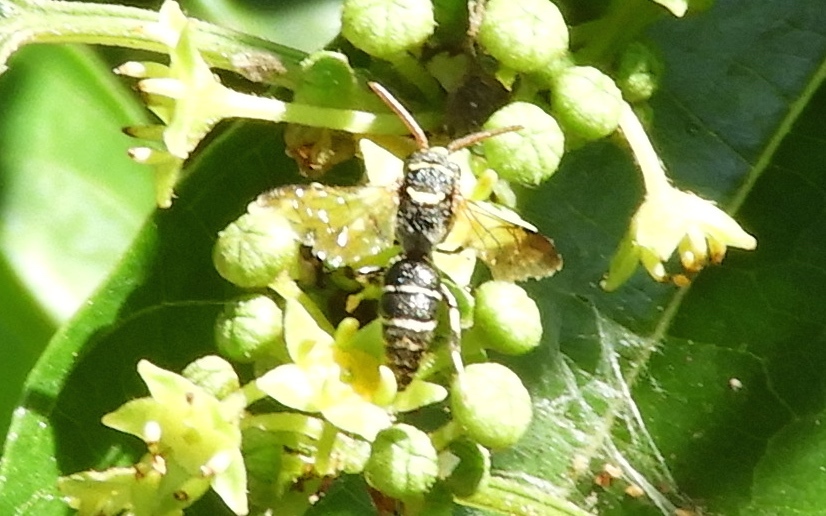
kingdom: Animalia
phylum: Arthropoda
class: Insecta
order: Hymenoptera
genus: Hylaeopsis
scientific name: Hylaeopsis
